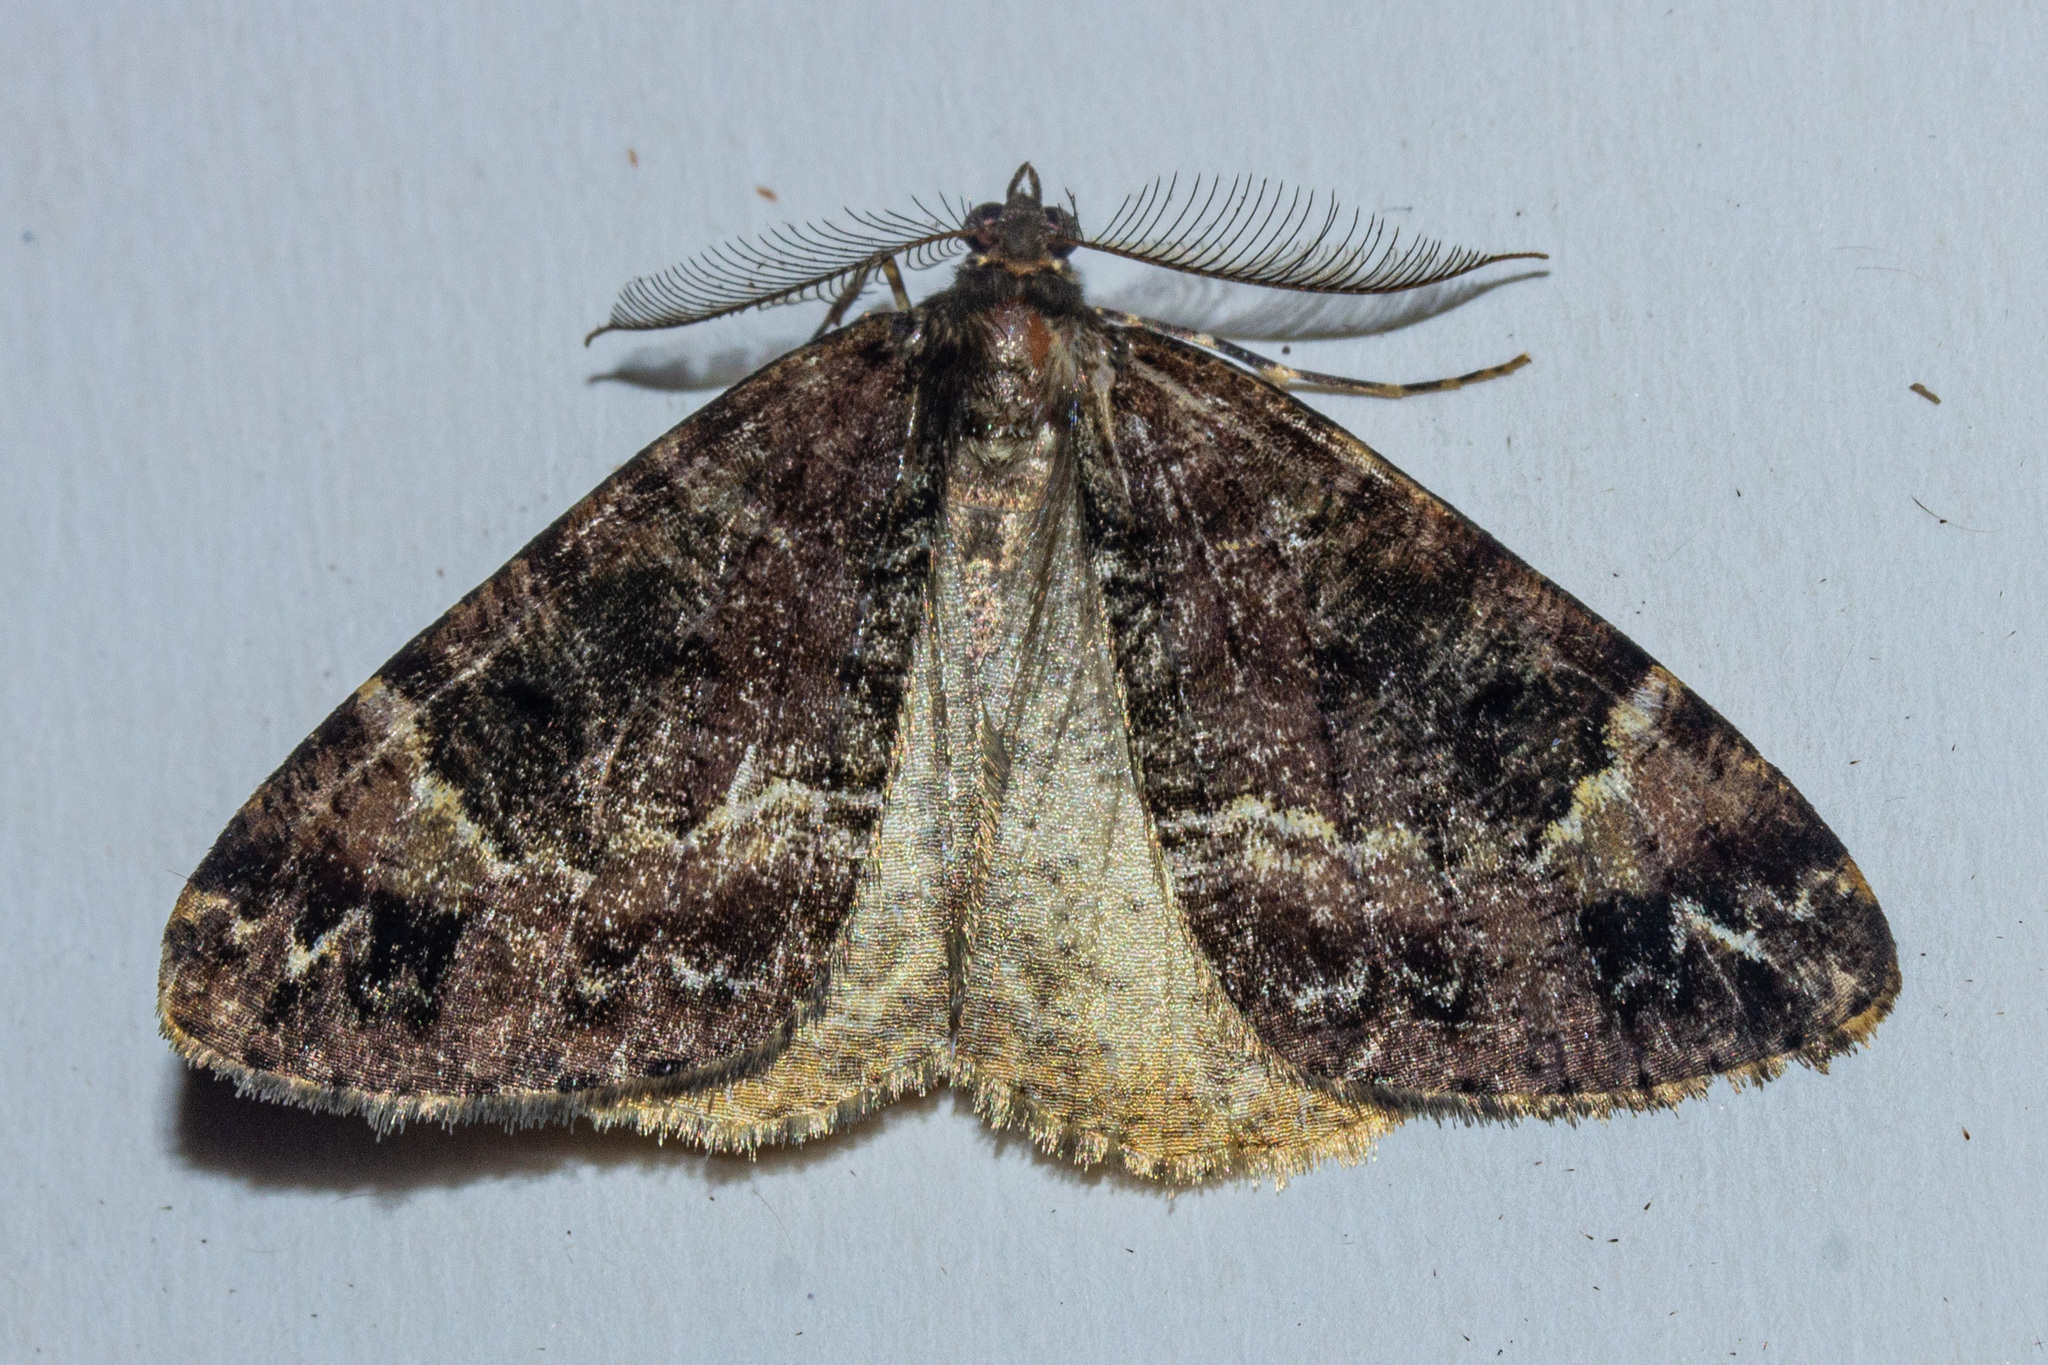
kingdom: Animalia
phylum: Arthropoda
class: Insecta
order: Lepidoptera
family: Geometridae
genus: Pseudocoremia
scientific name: Pseudocoremia productata
